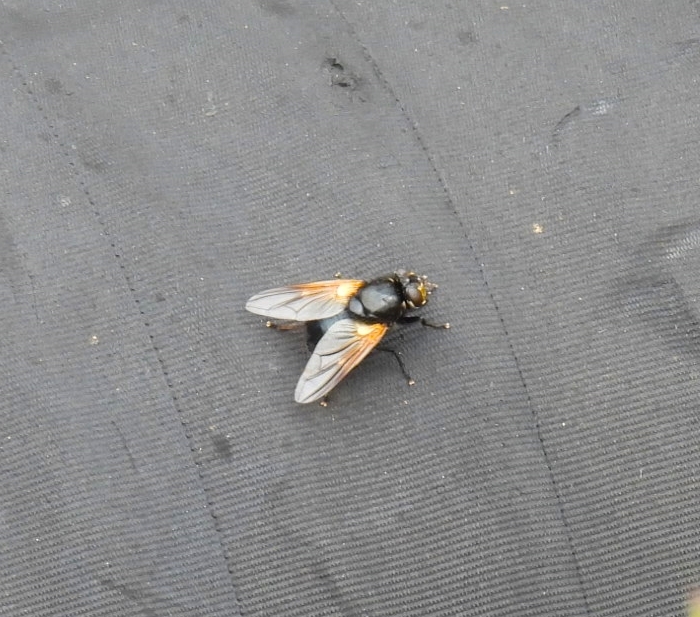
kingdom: Animalia
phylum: Arthropoda
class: Insecta
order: Diptera
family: Muscidae
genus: Mesembrina
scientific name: Mesembrina meridiana
